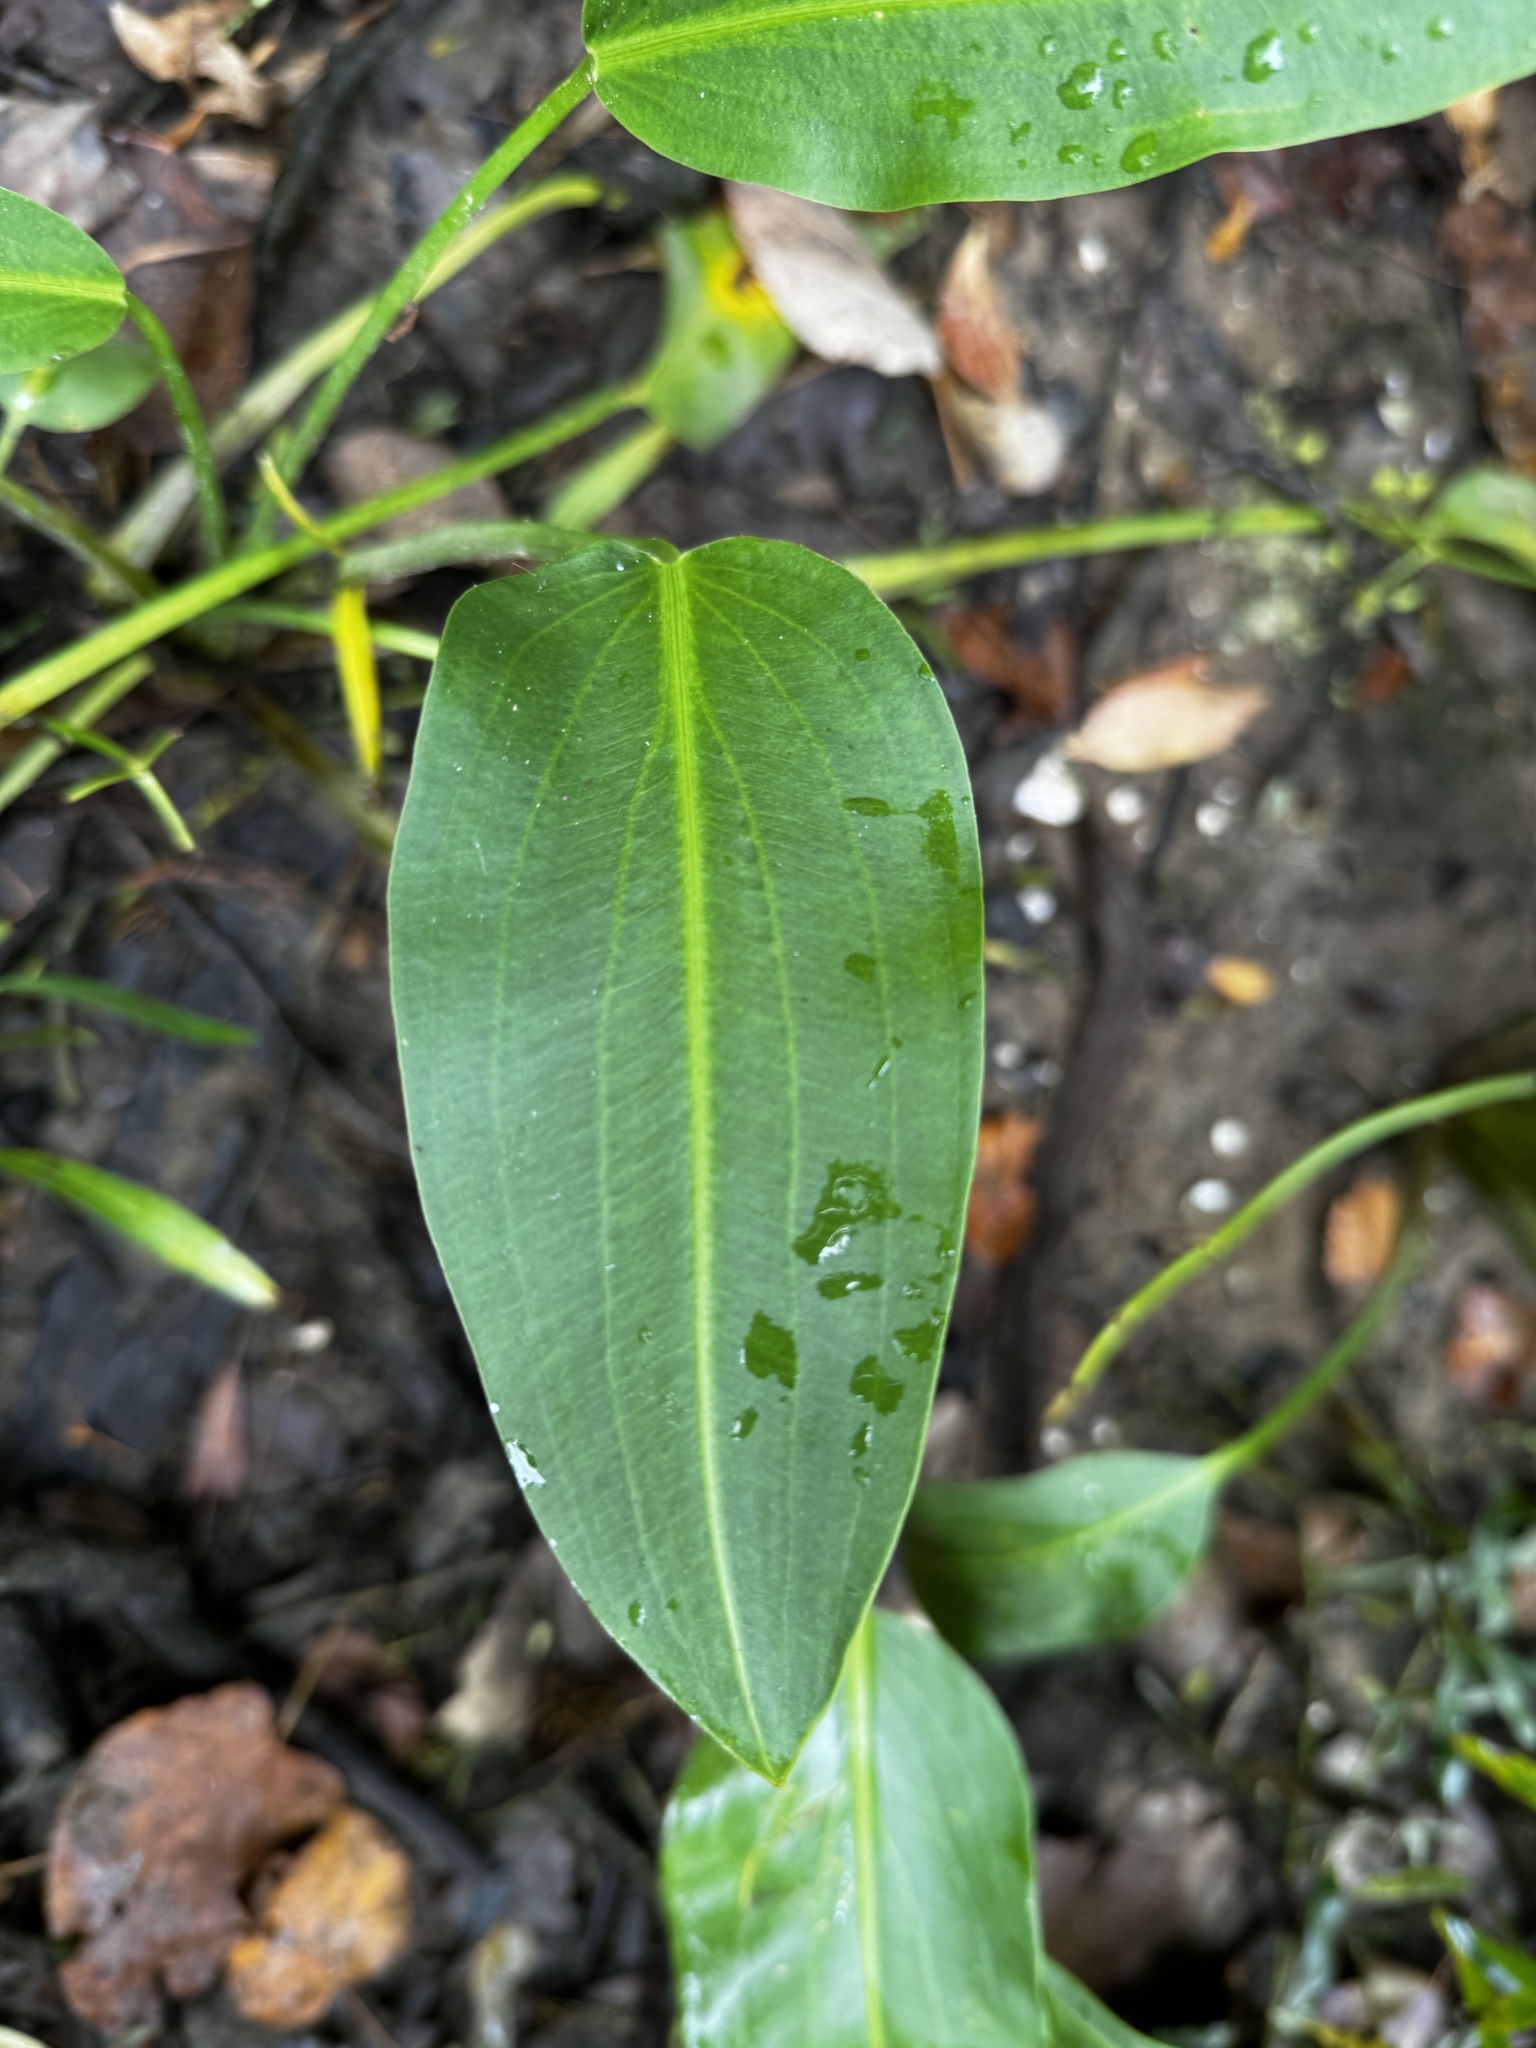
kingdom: Plantae
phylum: Tracheophyta
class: Liliopsida
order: Alismatales
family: Alismataceae
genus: Sagittaria
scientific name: Sagittaria platyphylla
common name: Broad-leaf arrowhead
